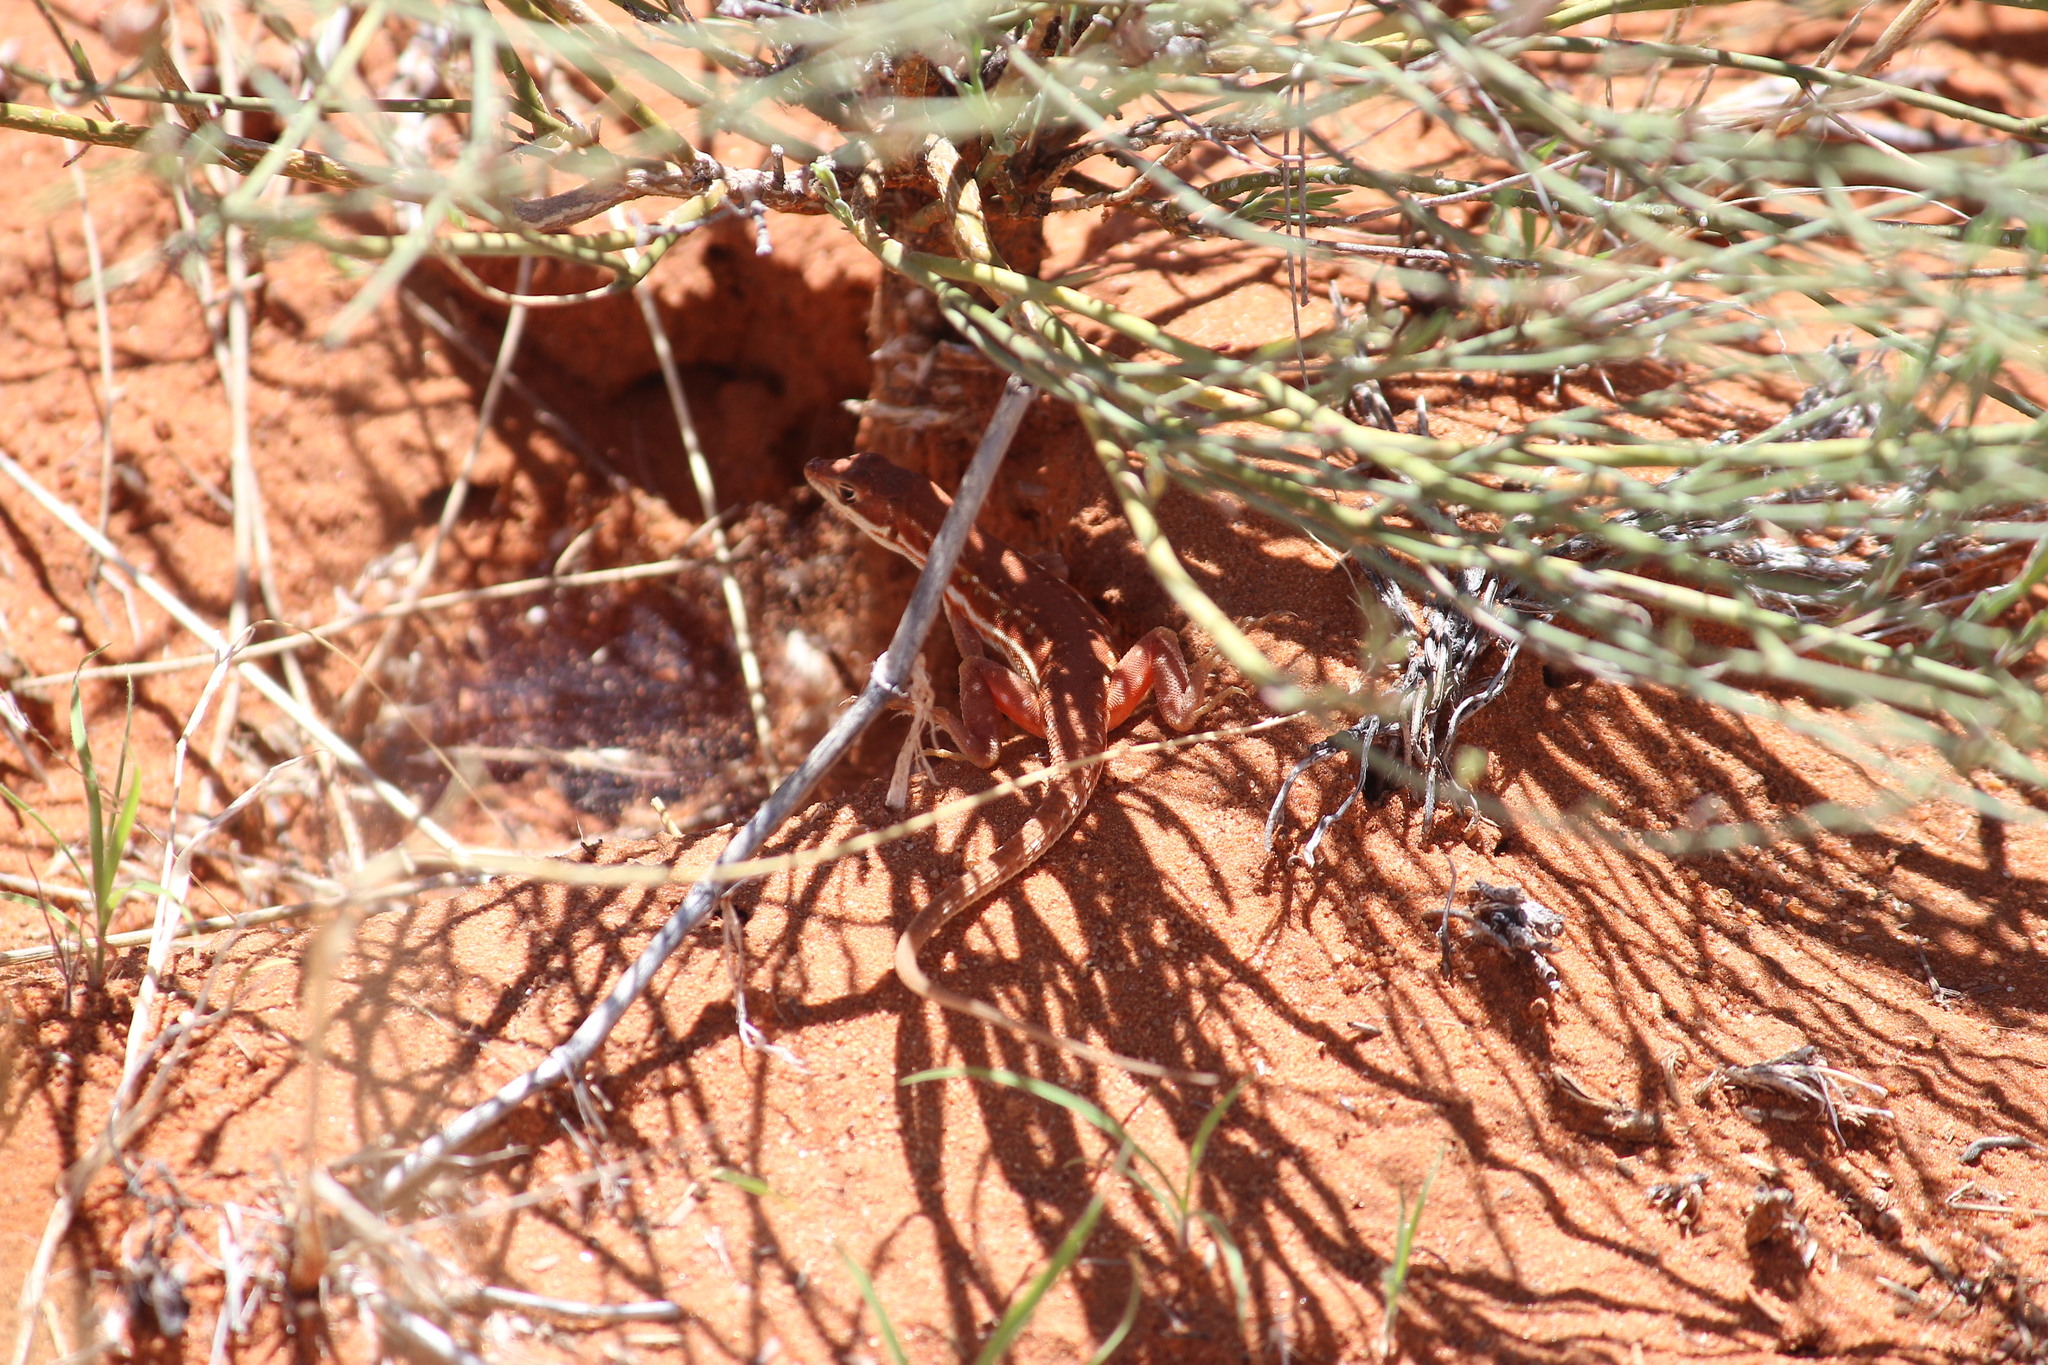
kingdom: Animalia
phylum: Chordata
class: Squamata
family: Lacertidae
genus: Pedioplanis
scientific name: Pedioplanis lineoocellata
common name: Spotted sand lizard
